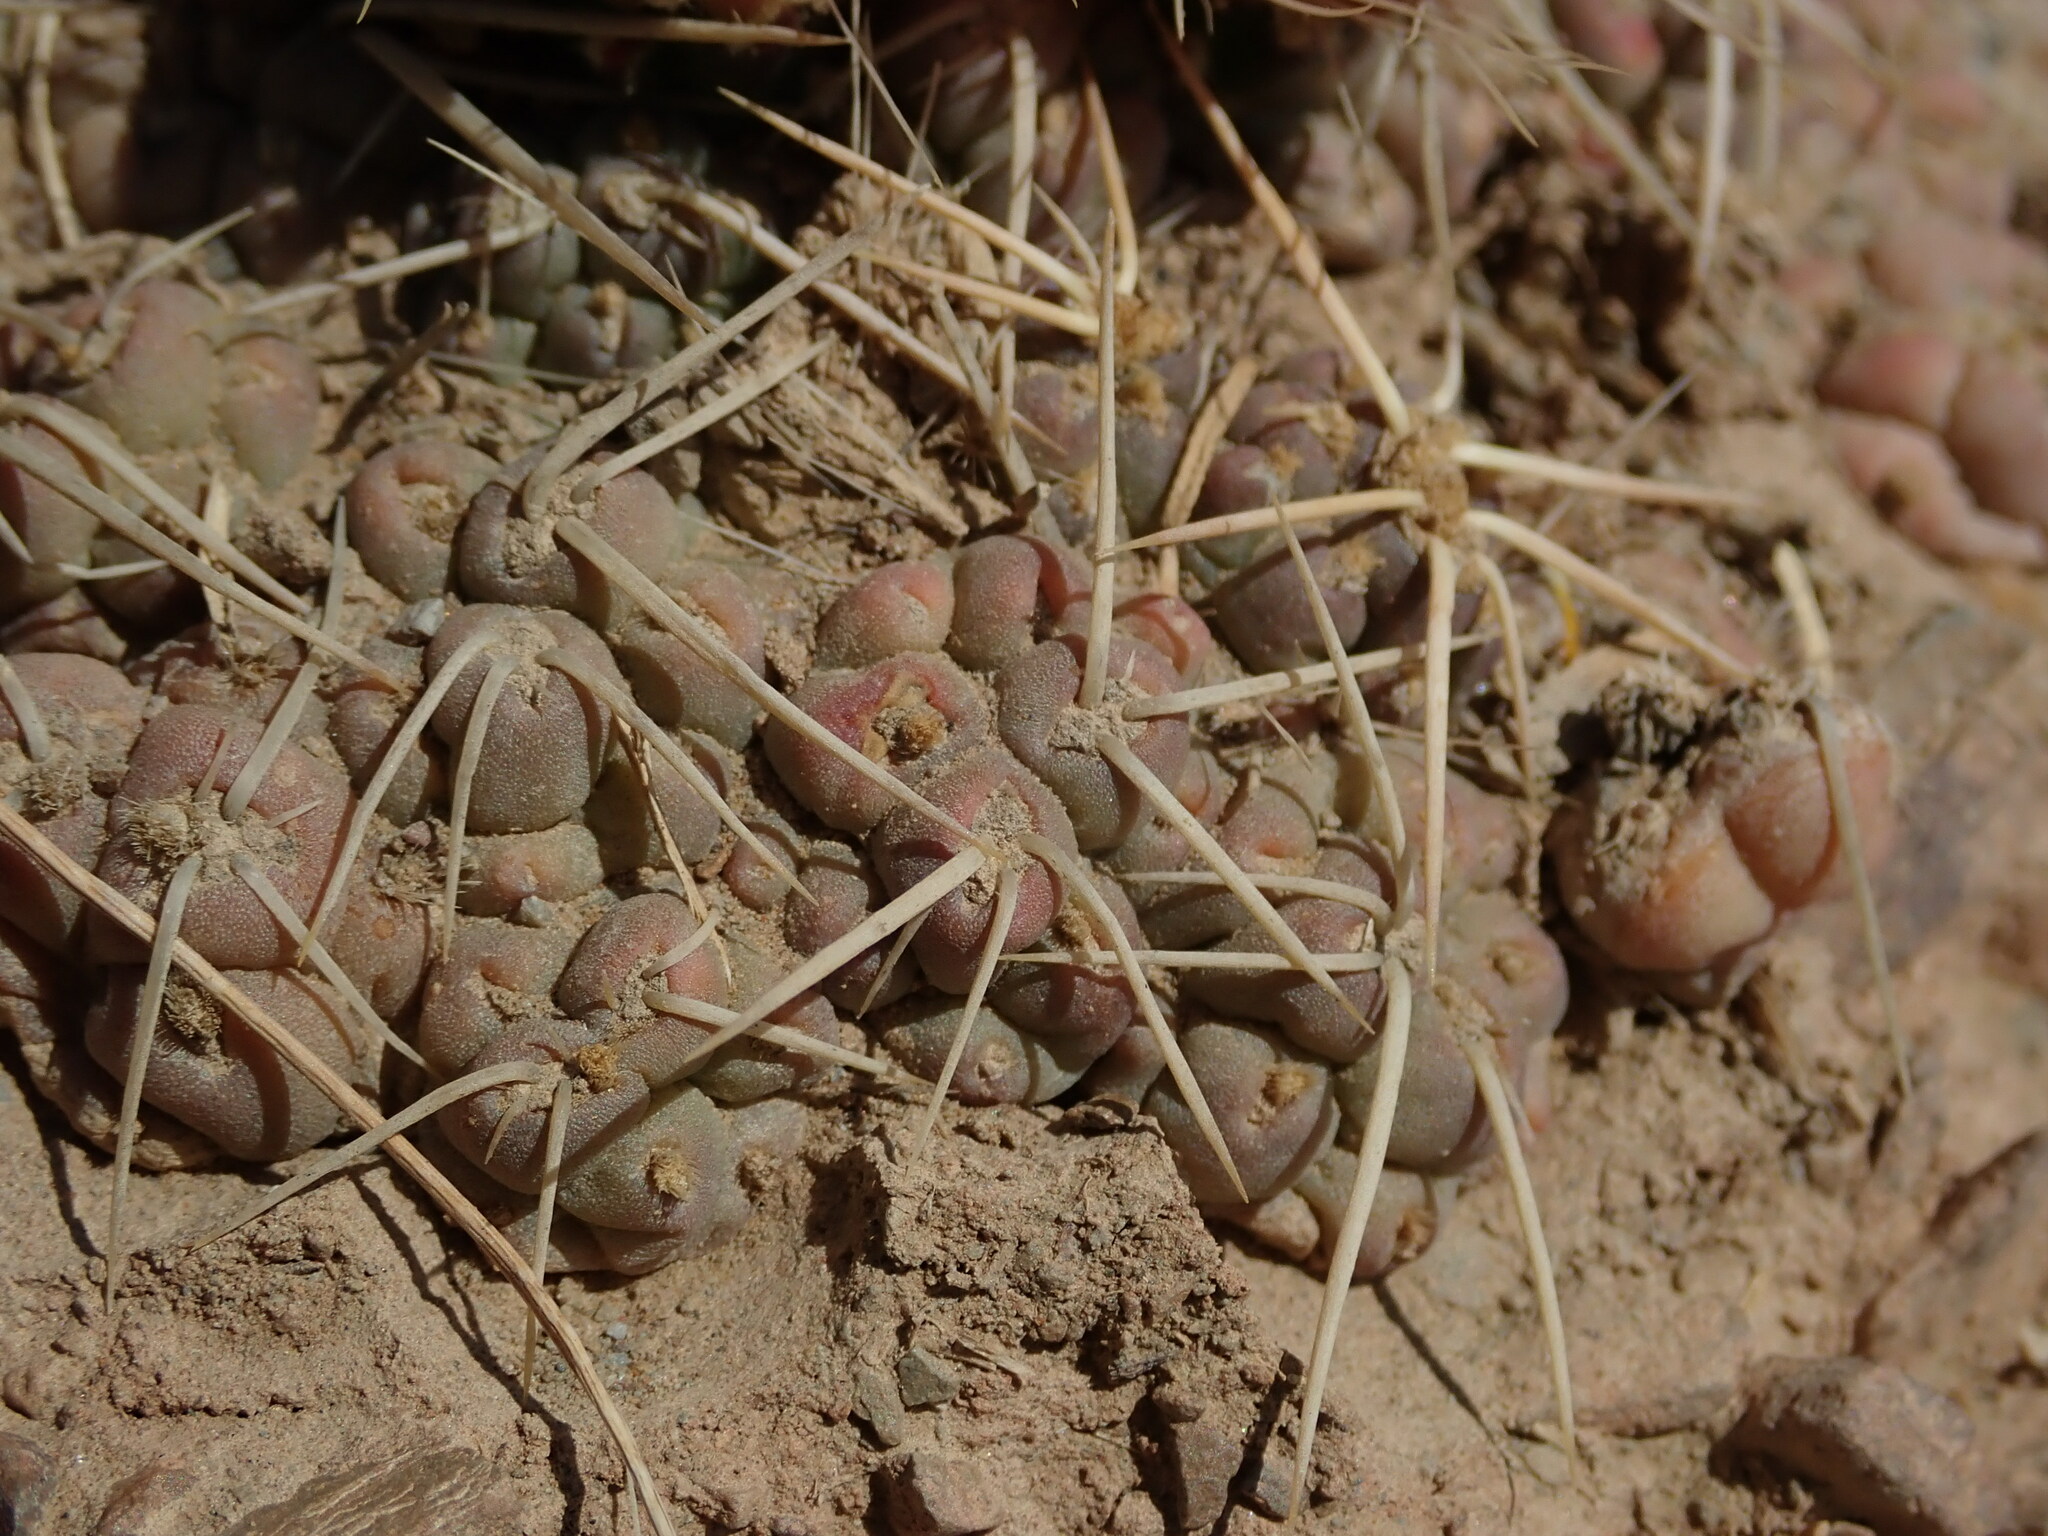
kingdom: Plantae
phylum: Tracheophyta
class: Magnoliopsida
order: Caryophyllales
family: Cactaceae
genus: Cumulopuntia
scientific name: Cumulopuntia rossiana
